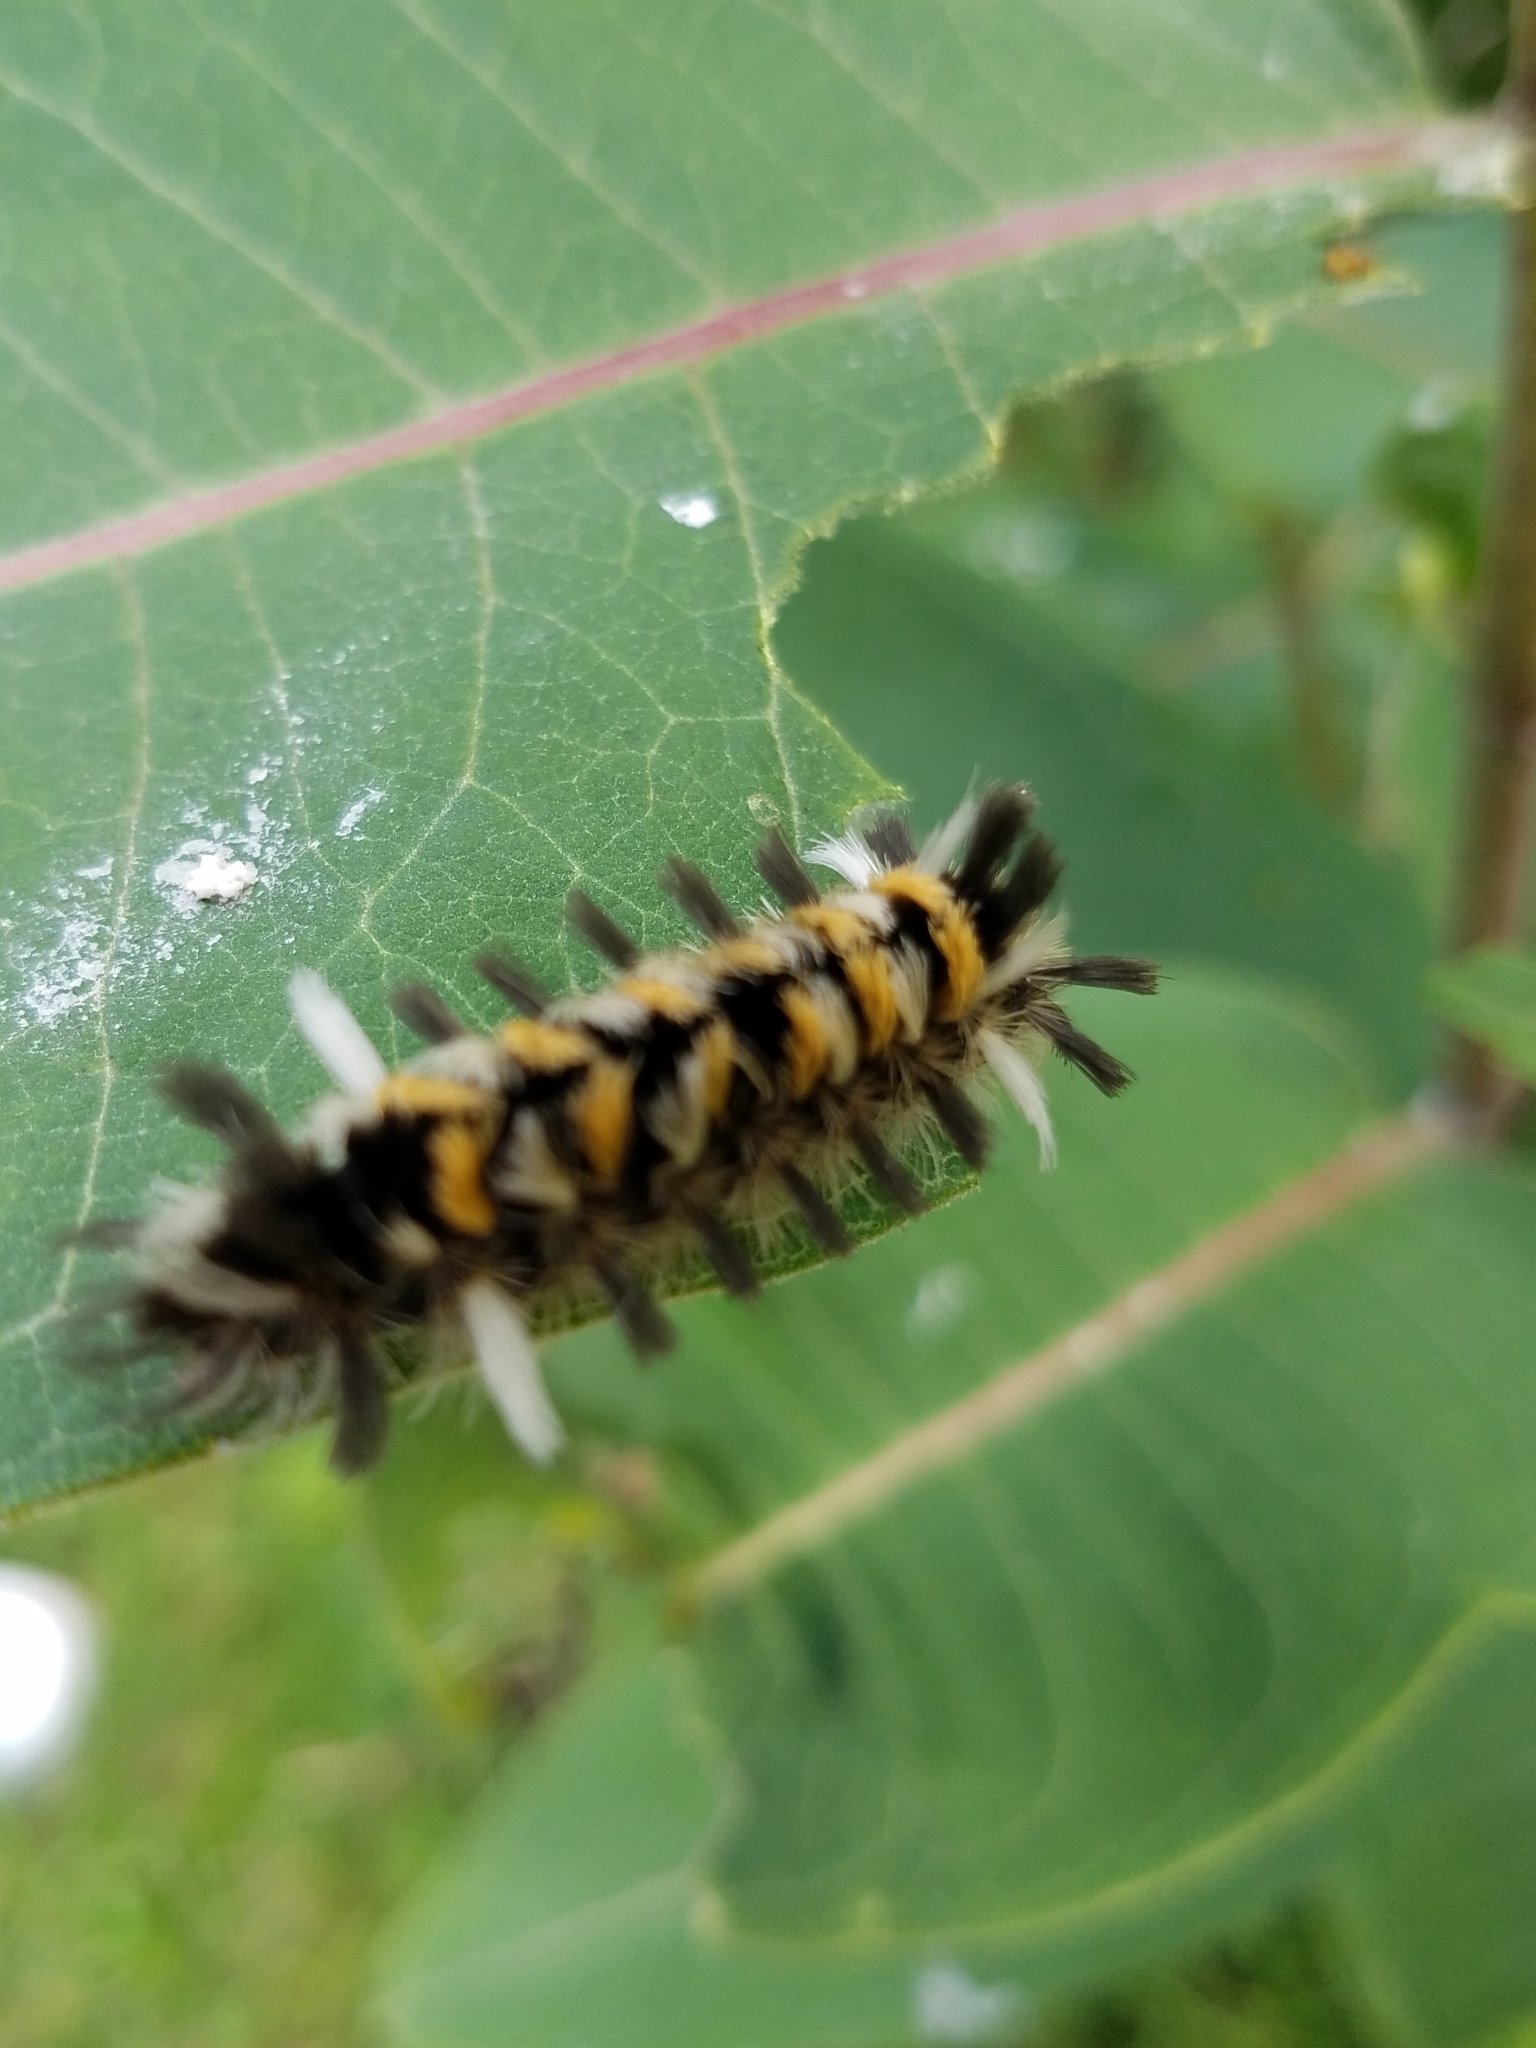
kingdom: Animalia
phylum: Arthropoda
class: Insecta
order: Lepidoptera
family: Erebidae
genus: Euchaetes
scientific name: Euchaetes egle
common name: Milkweed tussock moth
